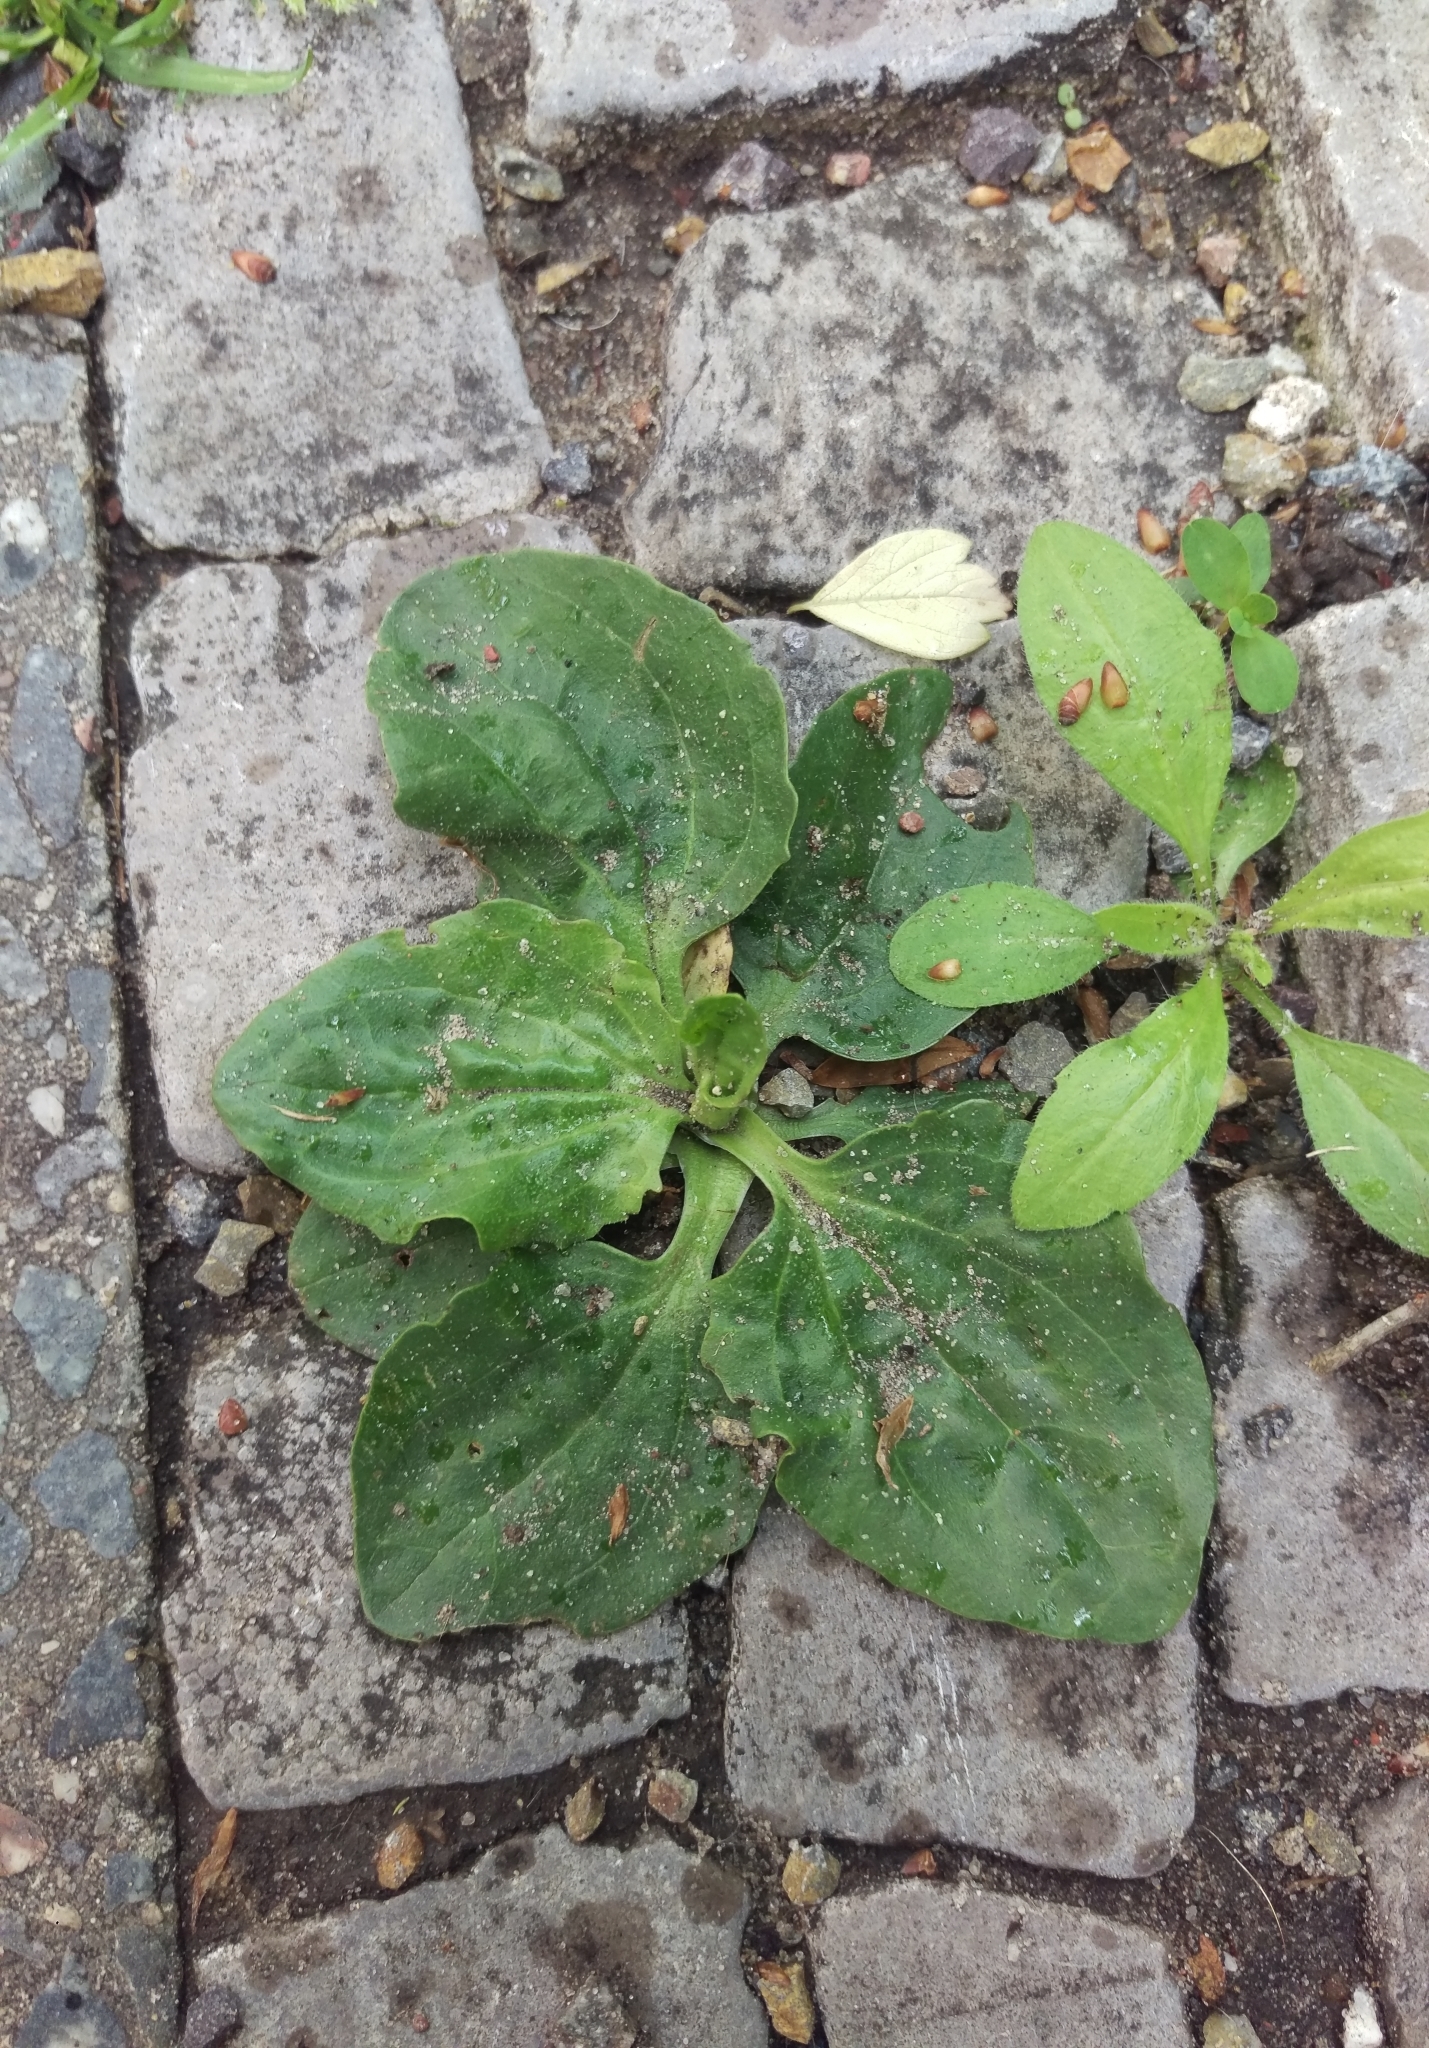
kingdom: Plantae
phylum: Tracheophyta
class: Magnoliopsida
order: Lamiales
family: Plantaginaceae
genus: Plantago
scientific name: Plantago major
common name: Common plantain
